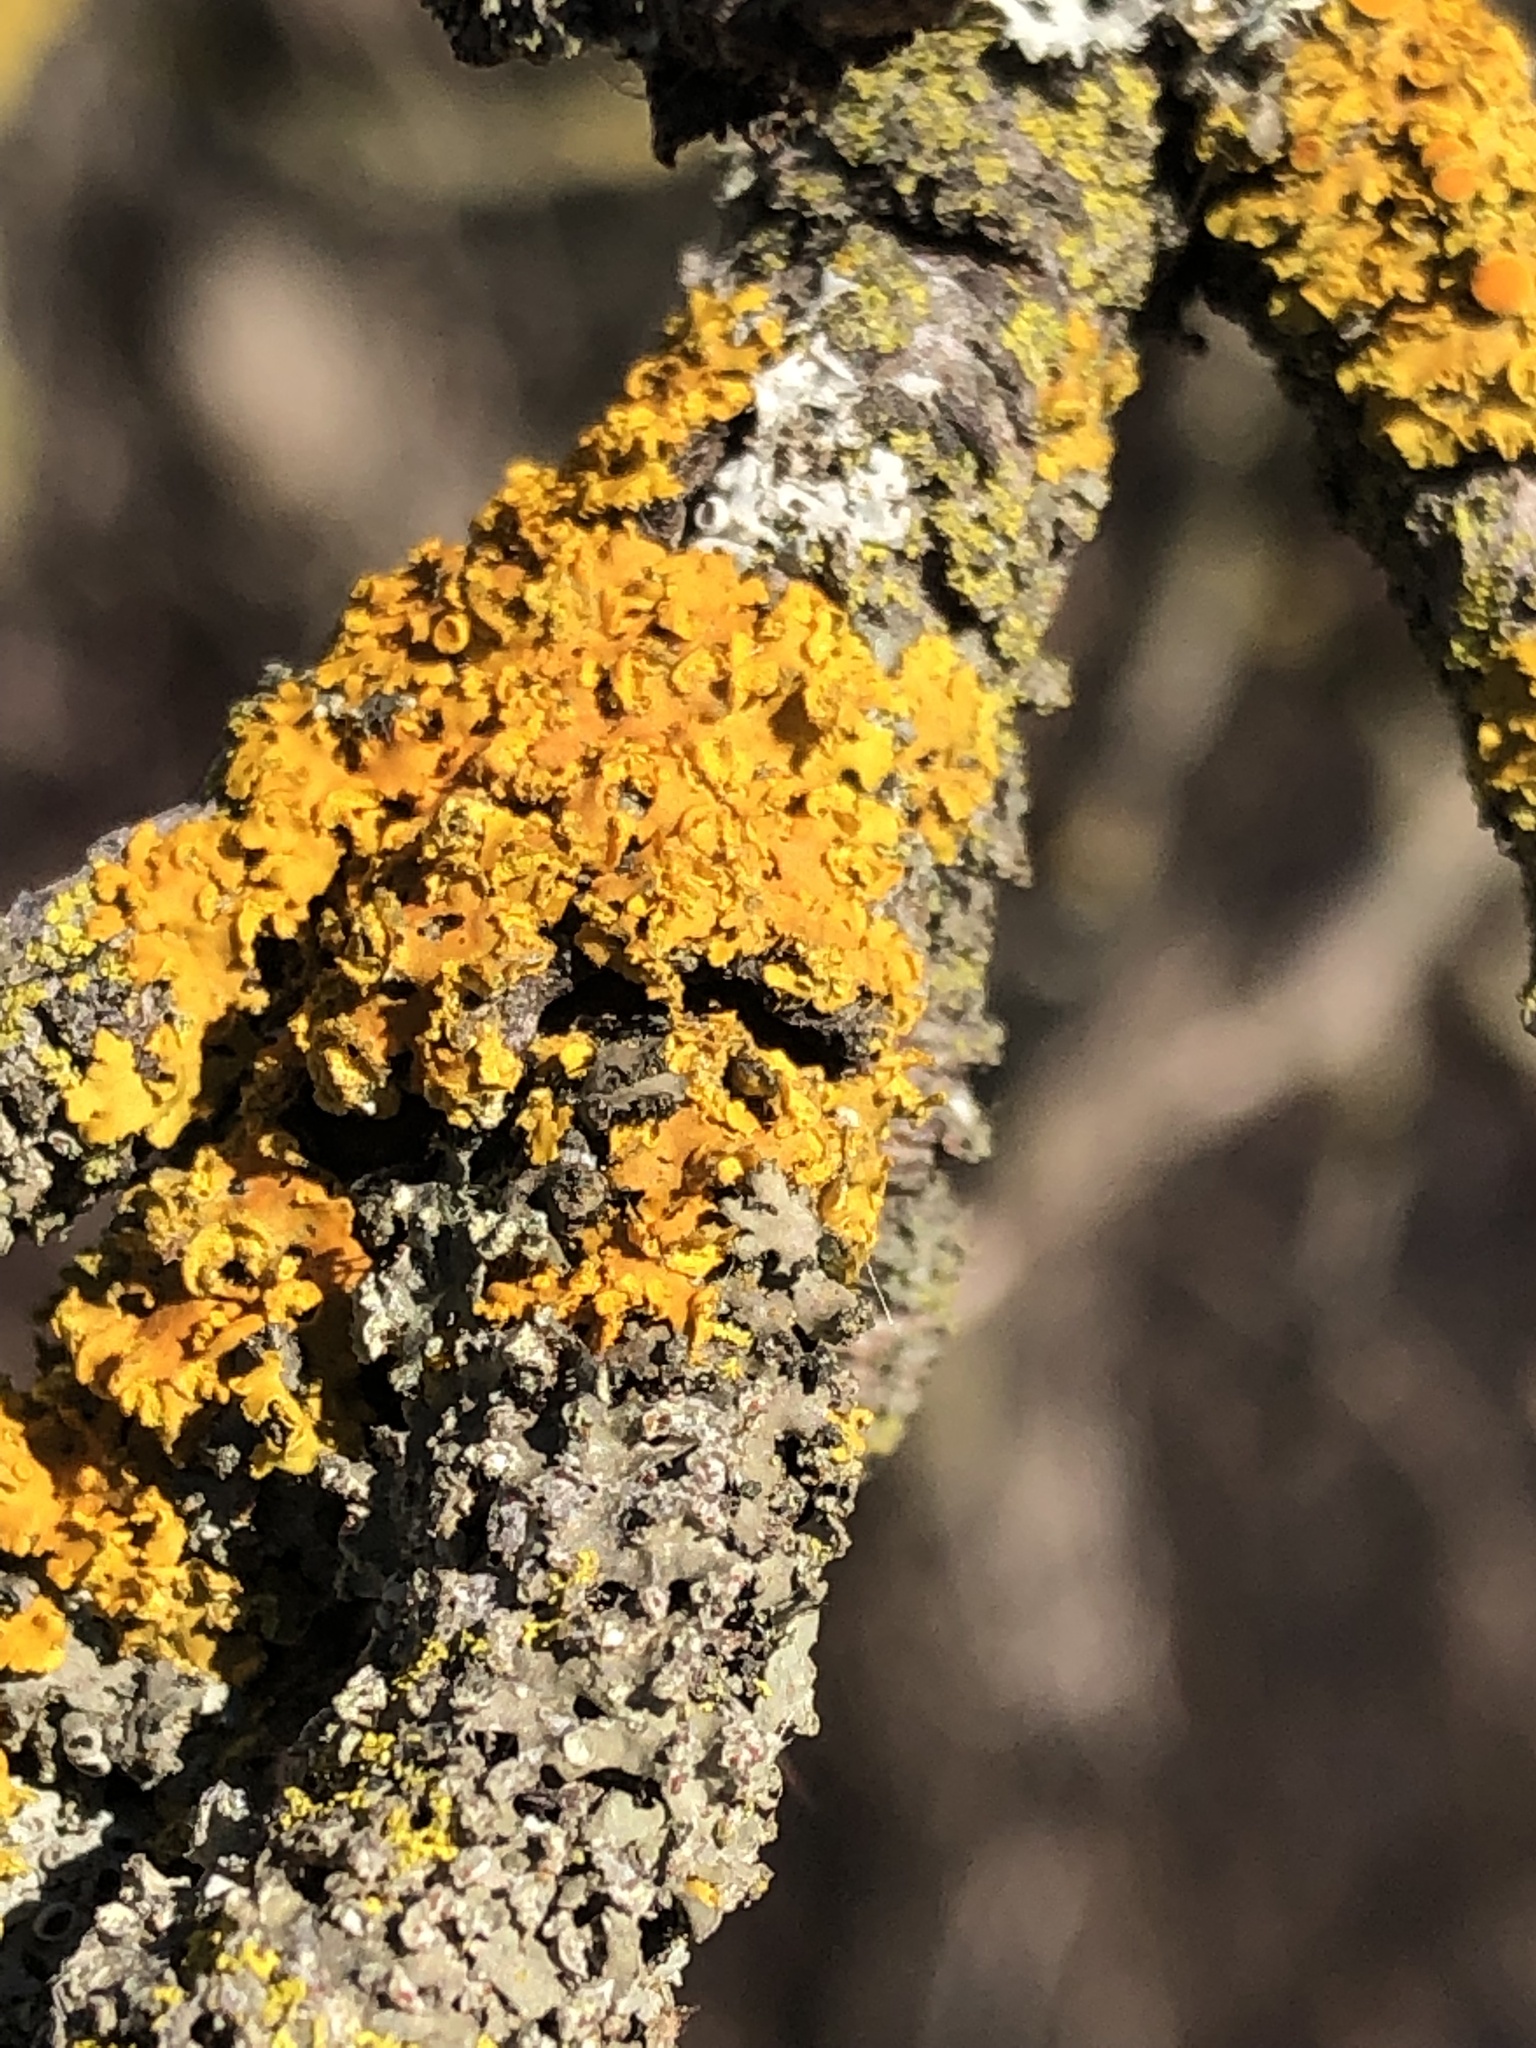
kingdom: Fungi
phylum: Ascomycota
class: Lecanoromycetes
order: Teloschistales
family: Teloschistaceae
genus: Oxneria
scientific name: Oxneria fallax
